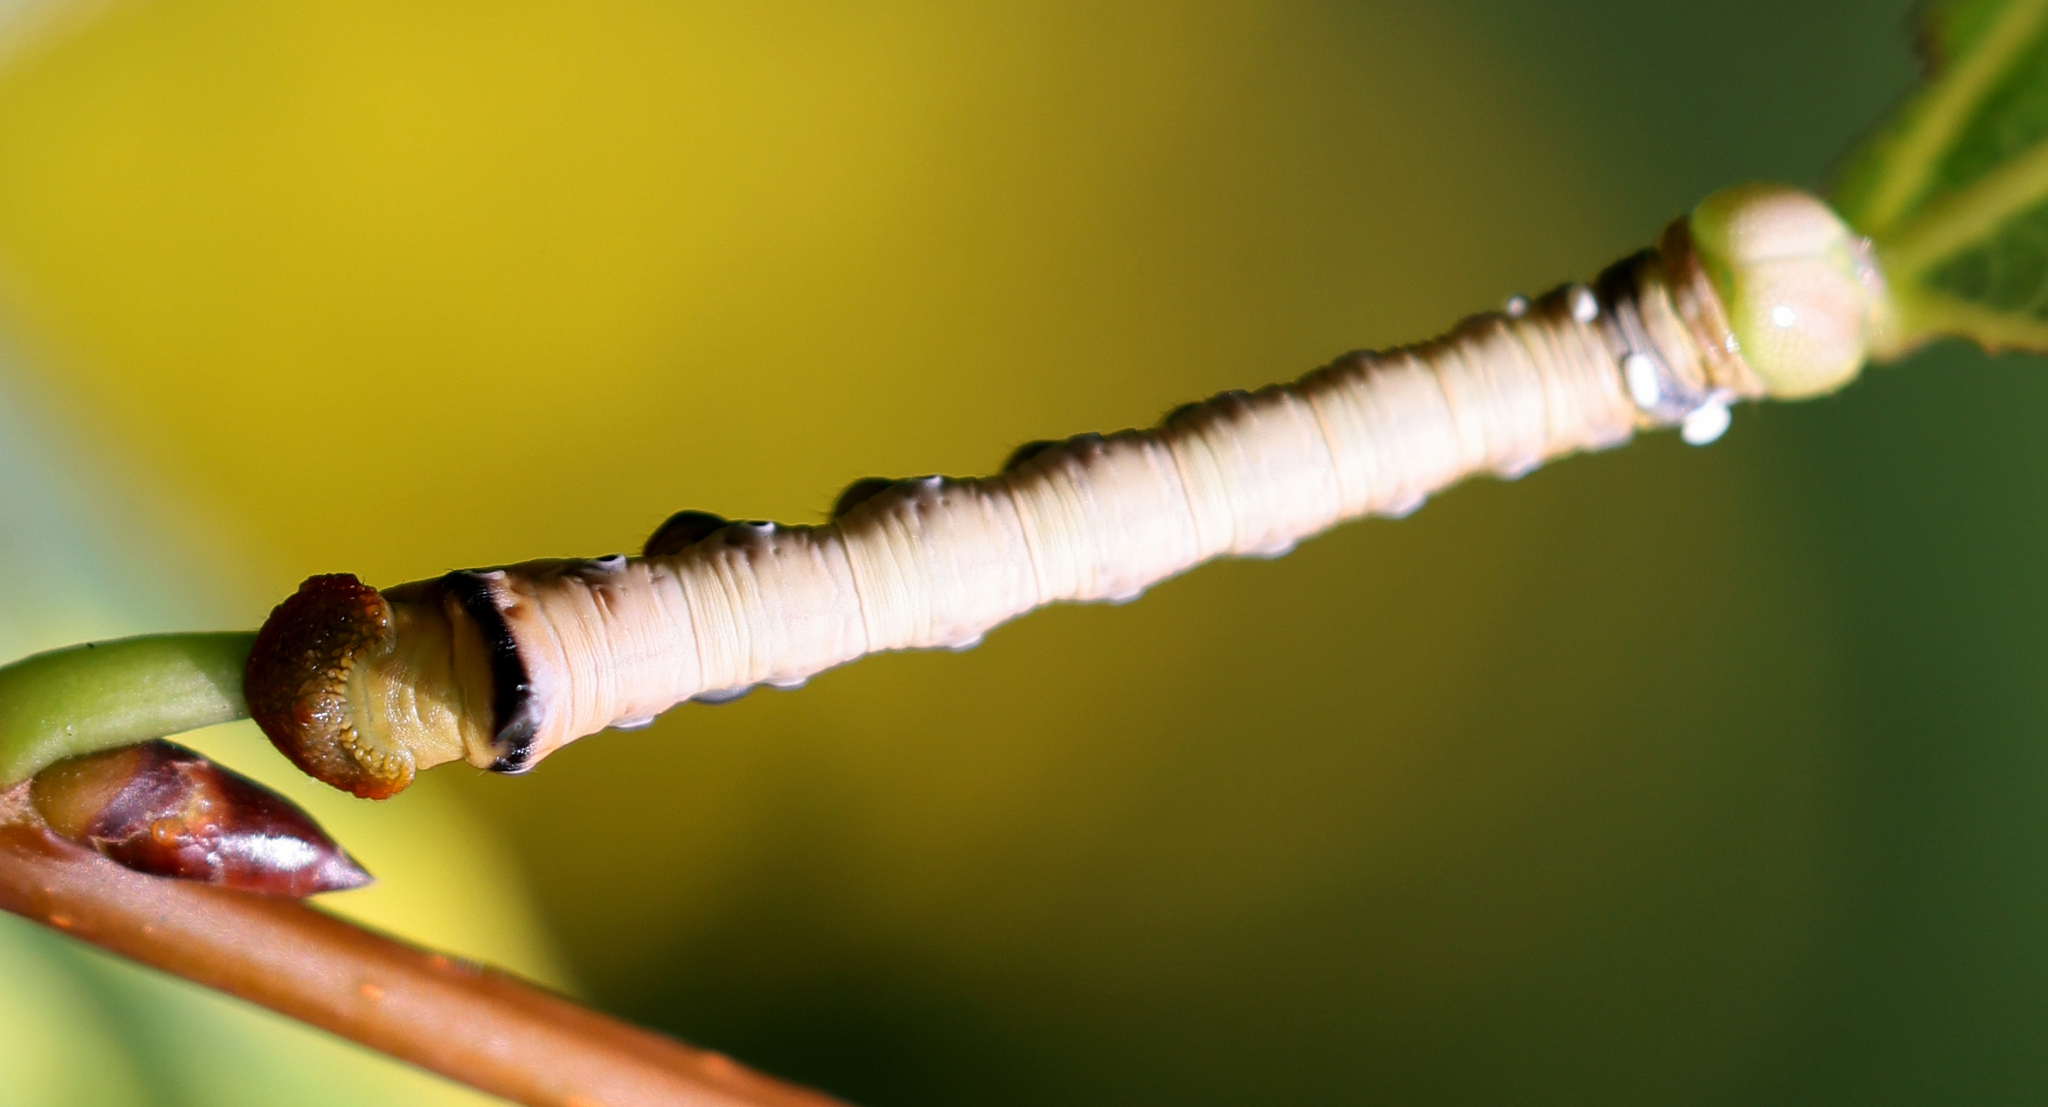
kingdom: Animalia
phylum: Arthropoda
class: Insecta
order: Lepidoptera
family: Notodontidae
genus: Pheosia
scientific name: Pheosia rimosa
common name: Black-rimmed prominent
